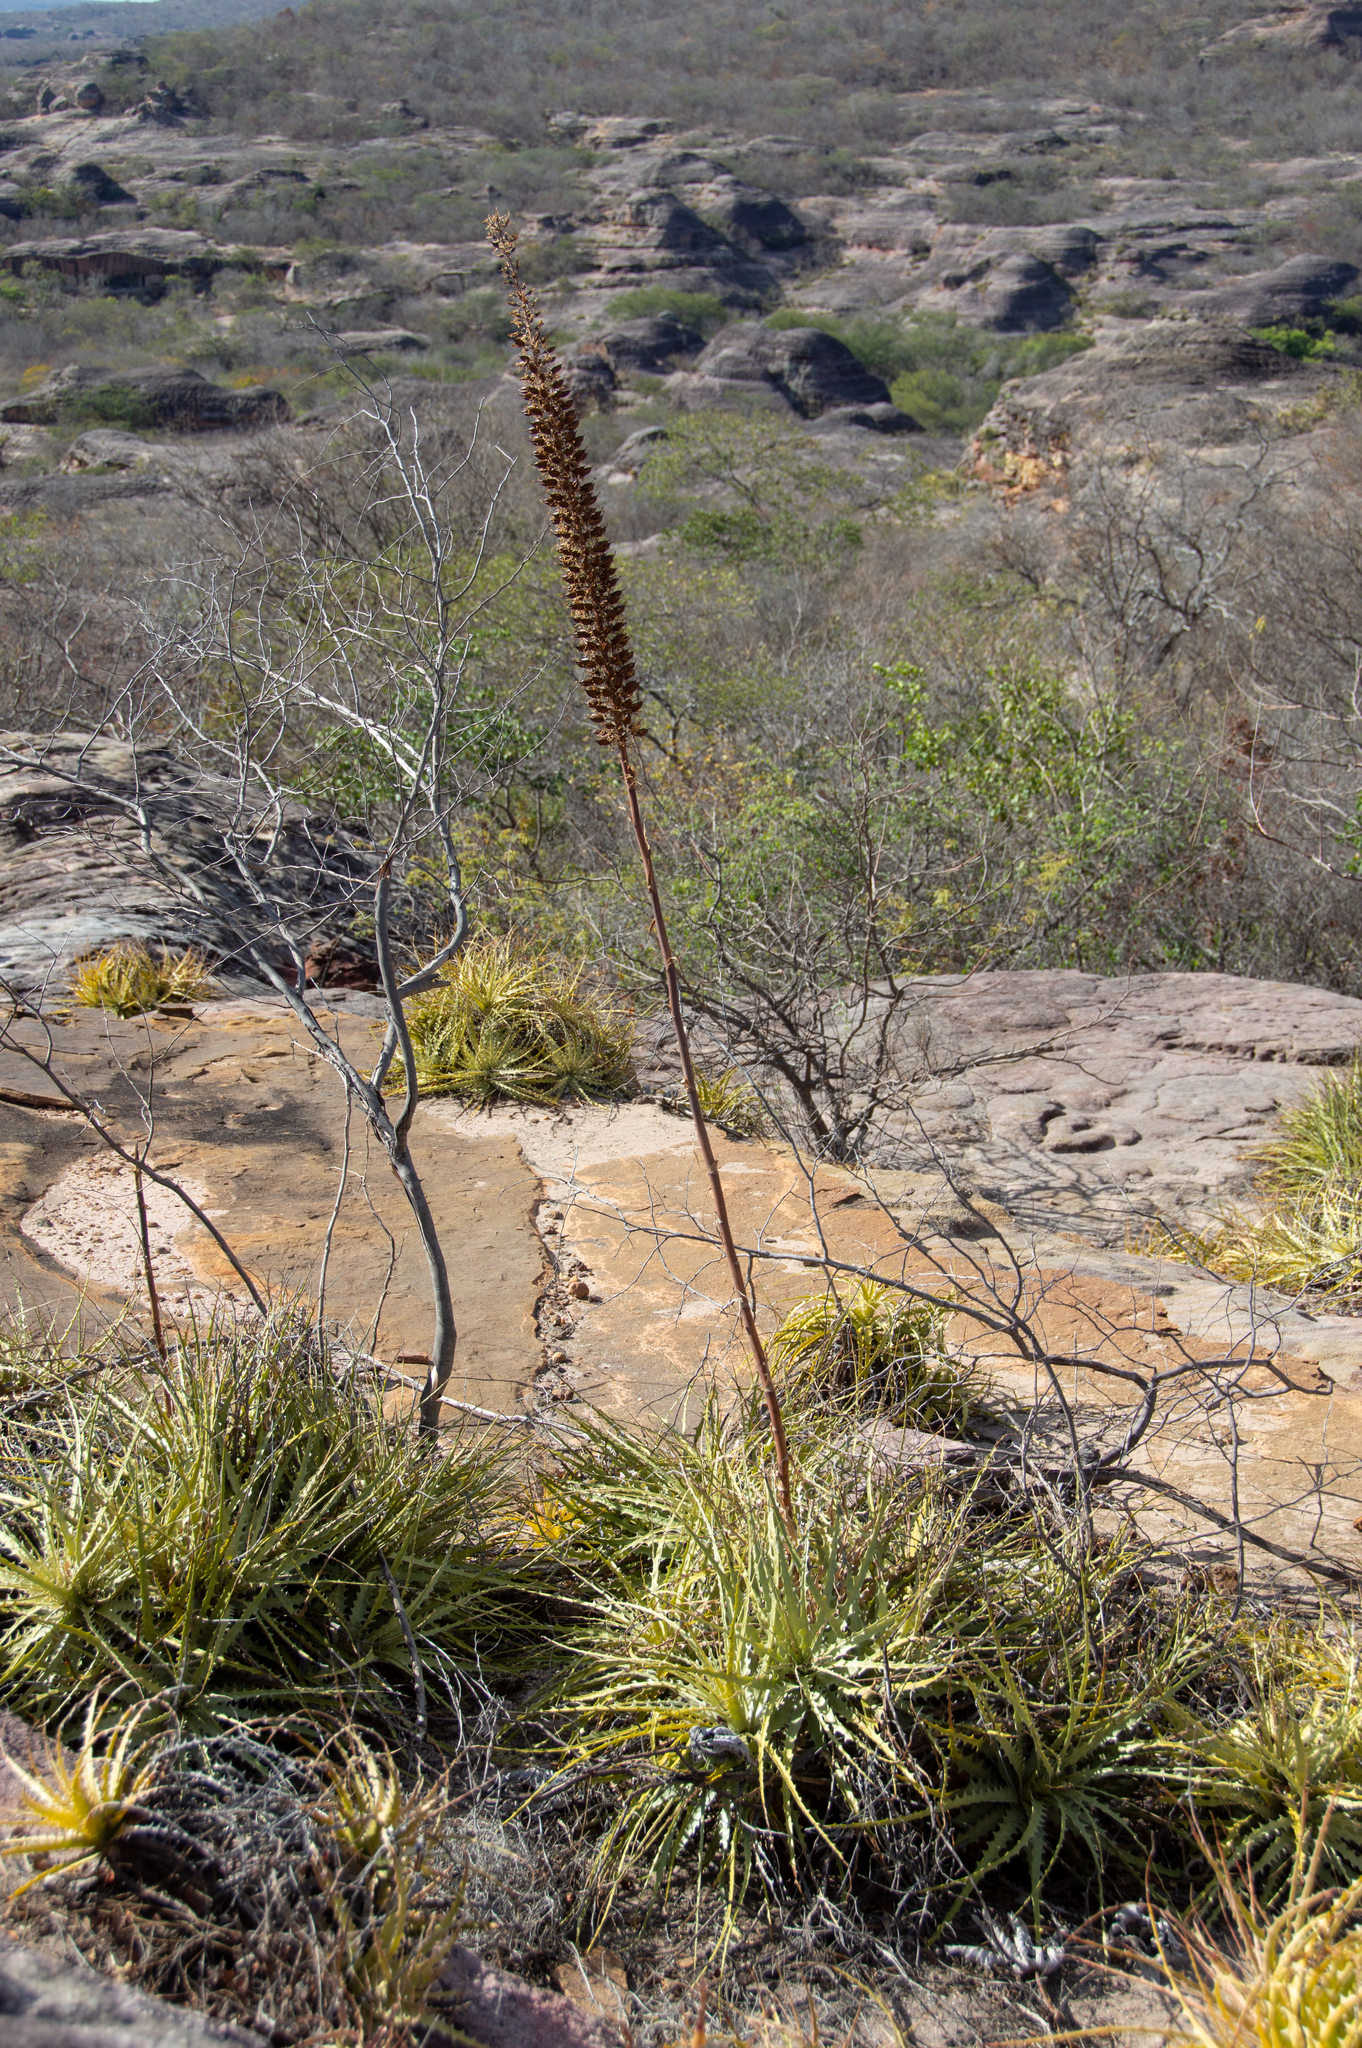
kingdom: Plantae
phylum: Tracheophyta
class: Liliopsida
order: Poales
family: Bromeliaceae
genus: Encholirium
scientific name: Encholirium spectabile
